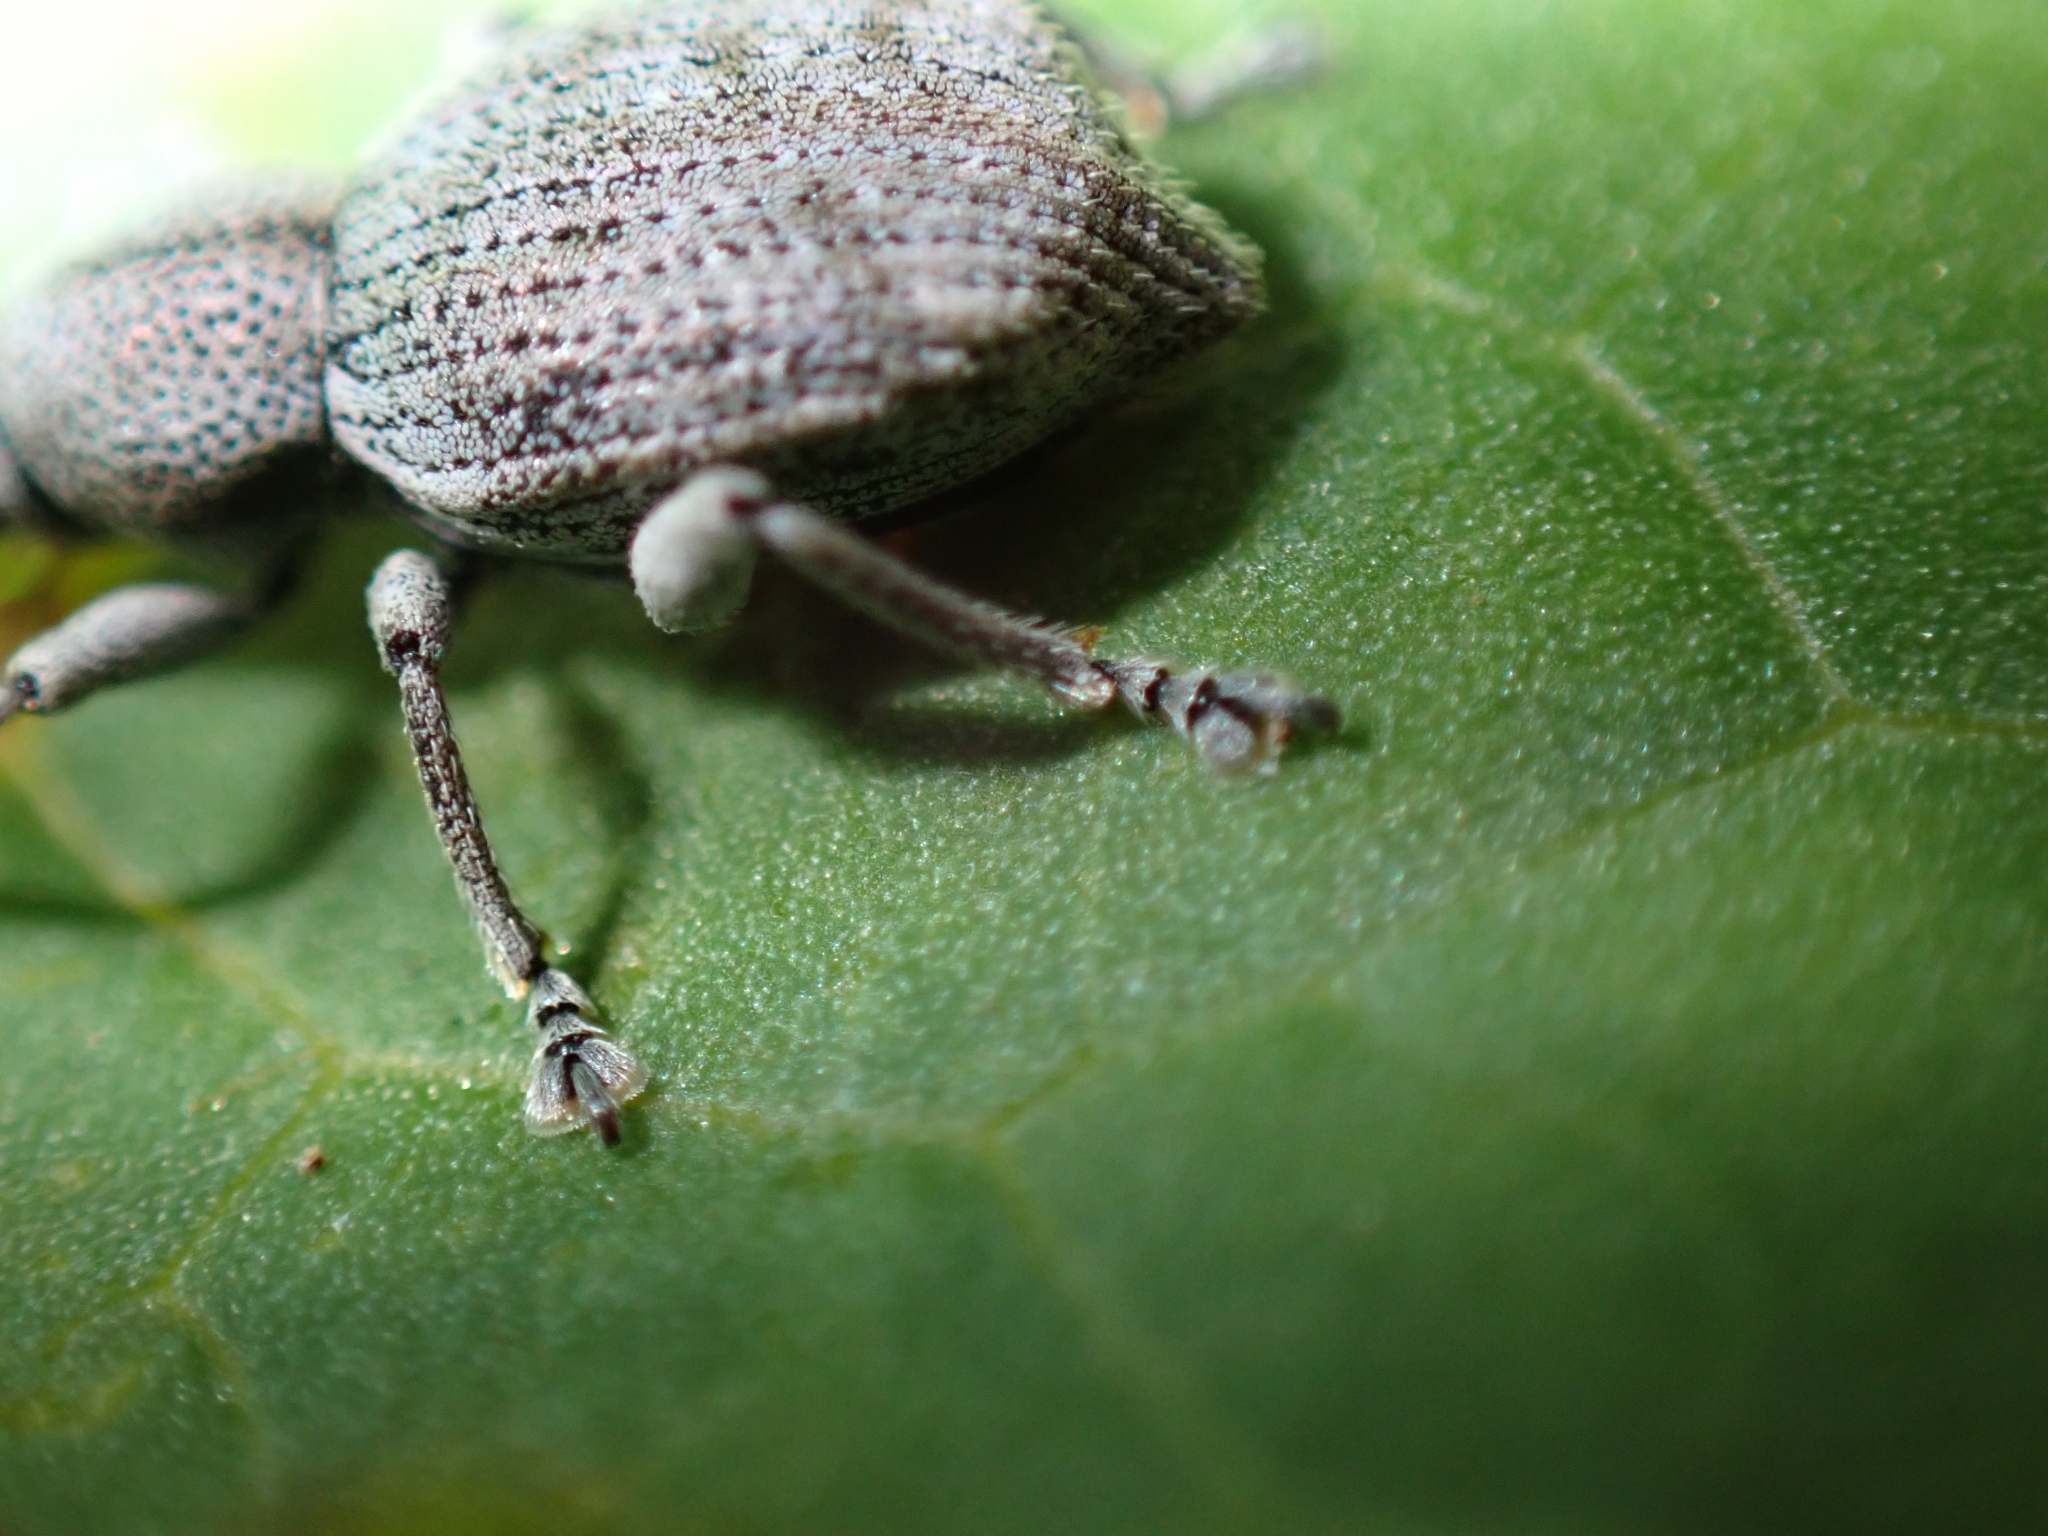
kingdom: Animalia
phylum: Arthropoda
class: Insecta
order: Coleoptera
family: Curculionidae
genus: Platysimus
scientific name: Platysimus septentrionalis
